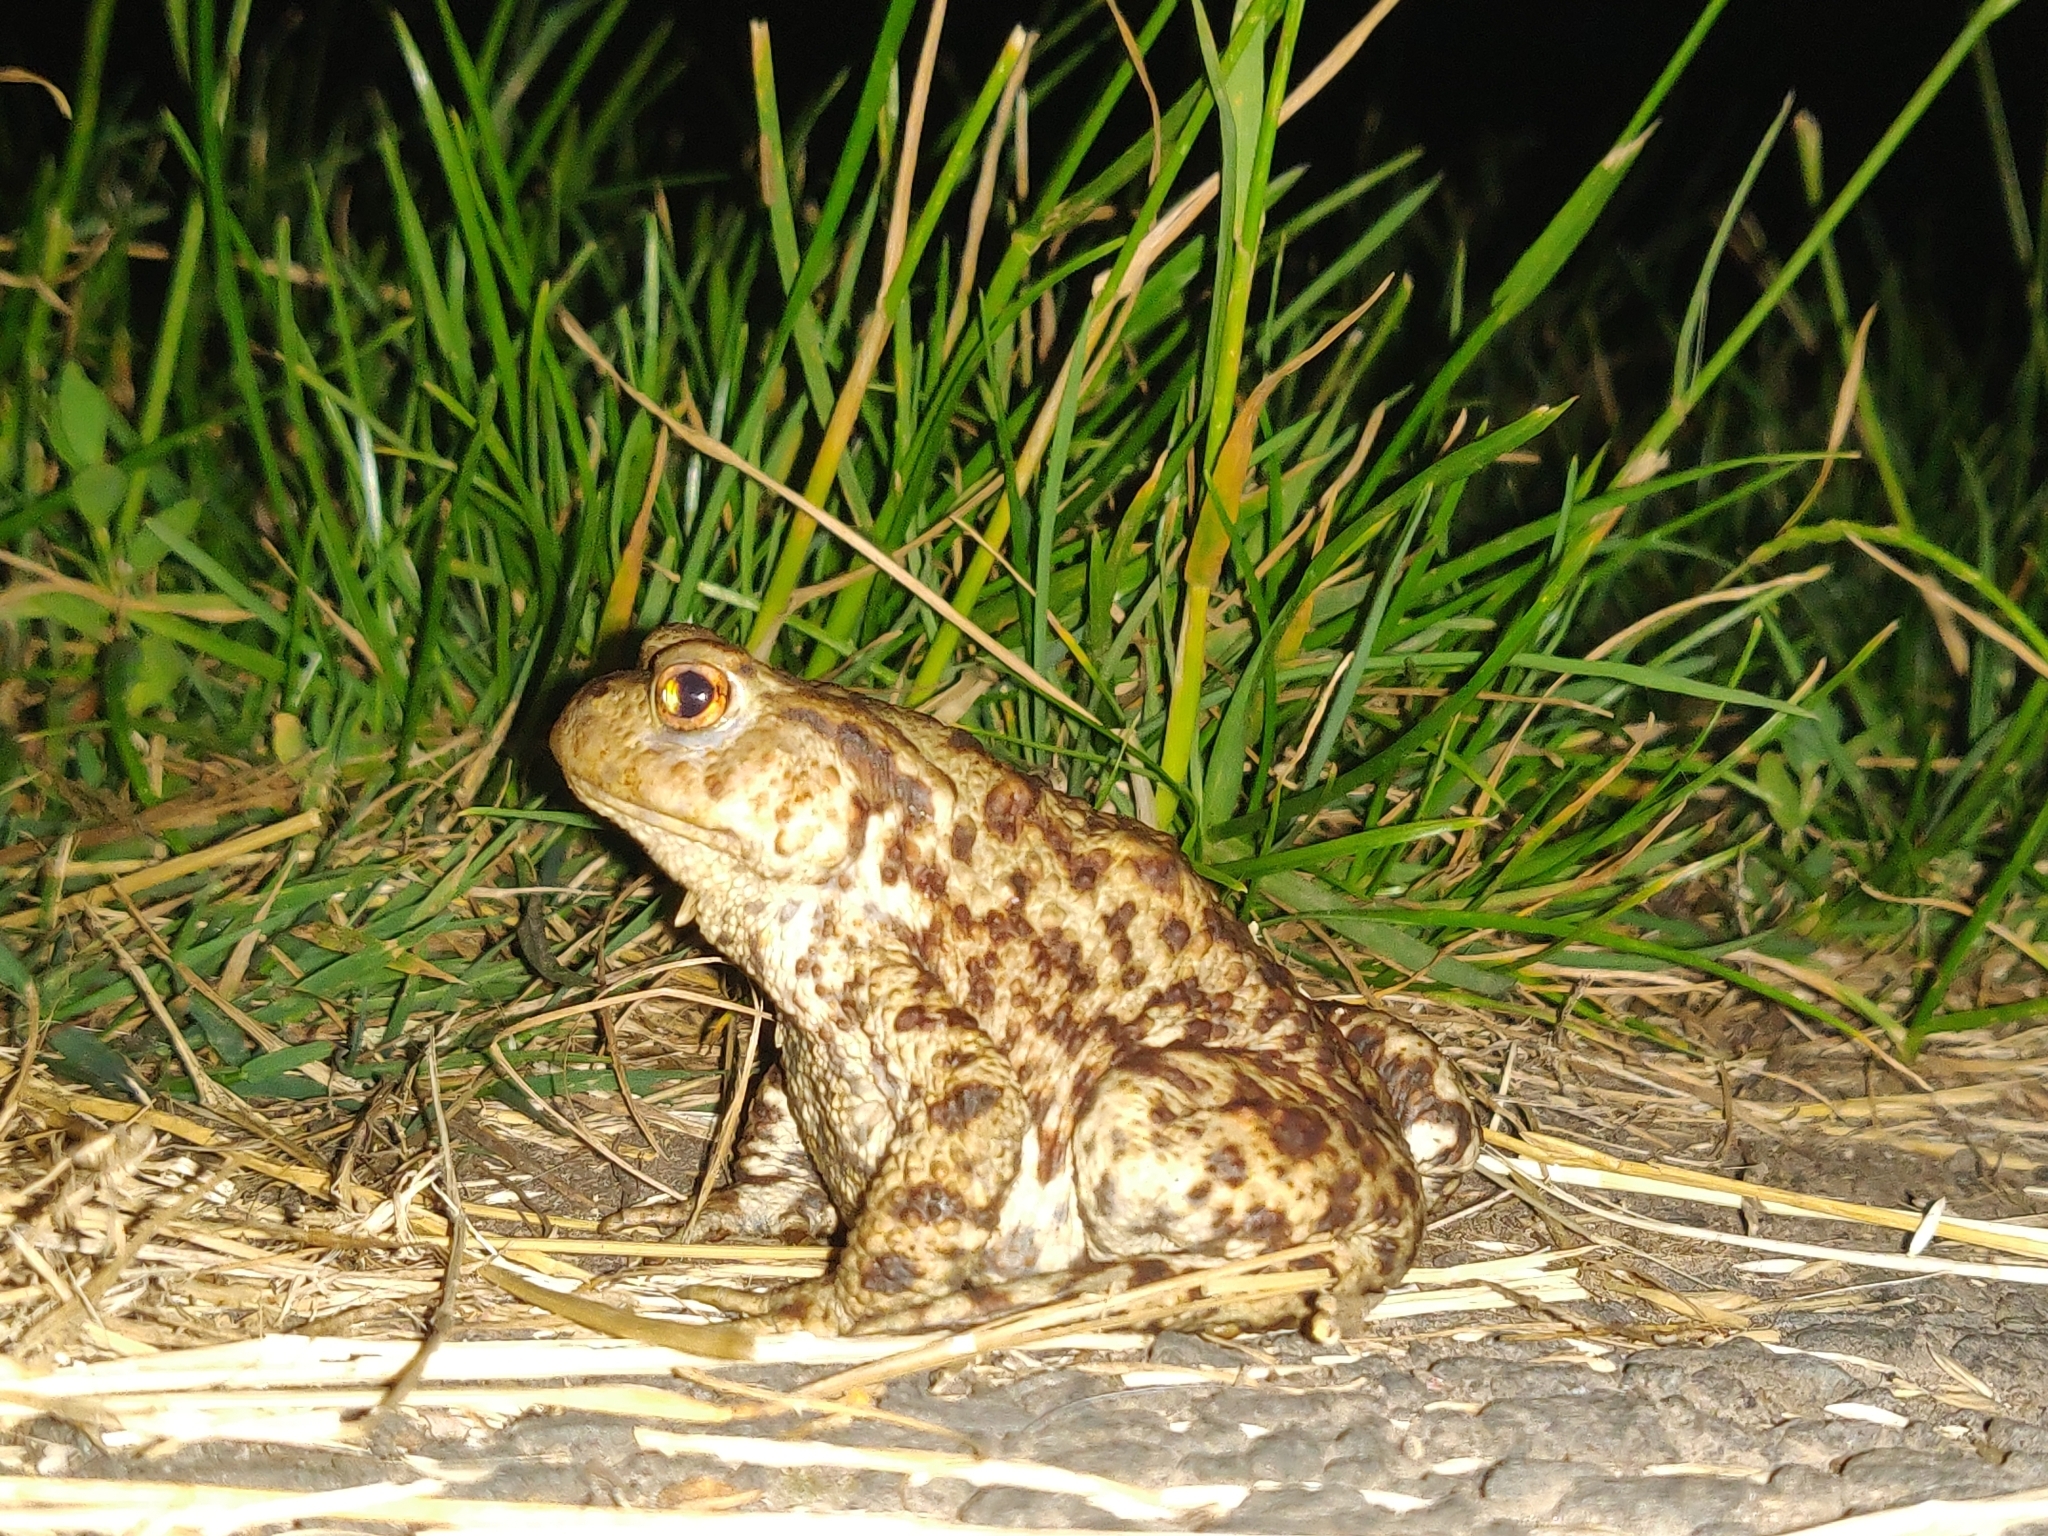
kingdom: Animalia
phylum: Chordata
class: Amphibia
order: Anura
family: Bufonidae
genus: Bufo
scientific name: Bufo bufo
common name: Common toad
